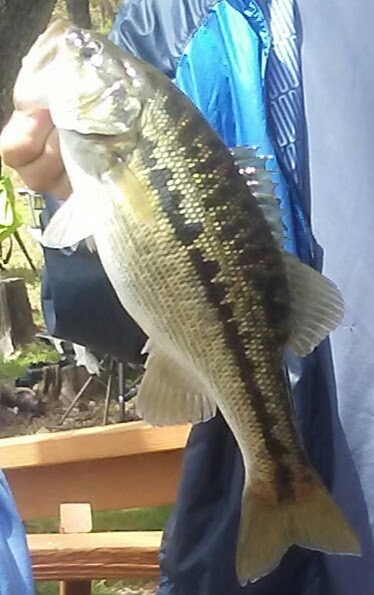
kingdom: Animalia
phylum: Chordata
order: Perciformes
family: Centrarchidae
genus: Micropterus
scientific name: Micropterus punctulatus
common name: Spotted bass
